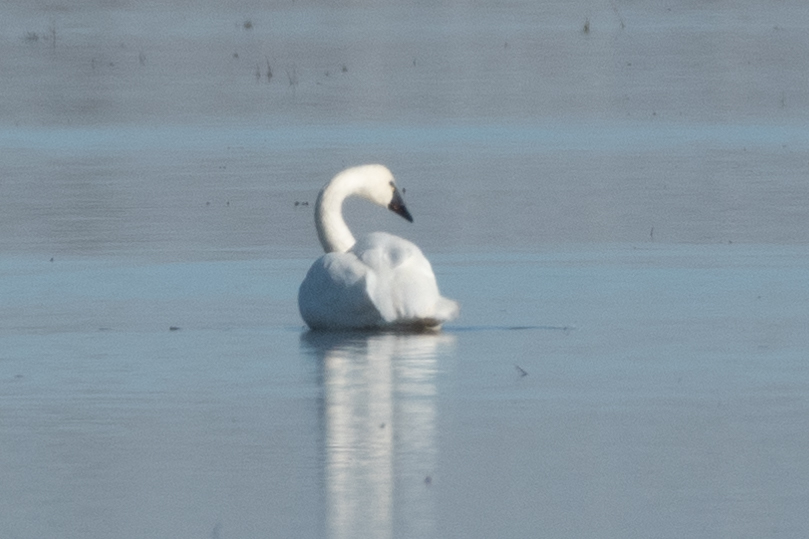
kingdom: Animalia
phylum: Chordata
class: Aves
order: Anseriformes
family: Anatidae
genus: Cygnus
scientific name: Cygnus columbianus
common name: Tundra swan
